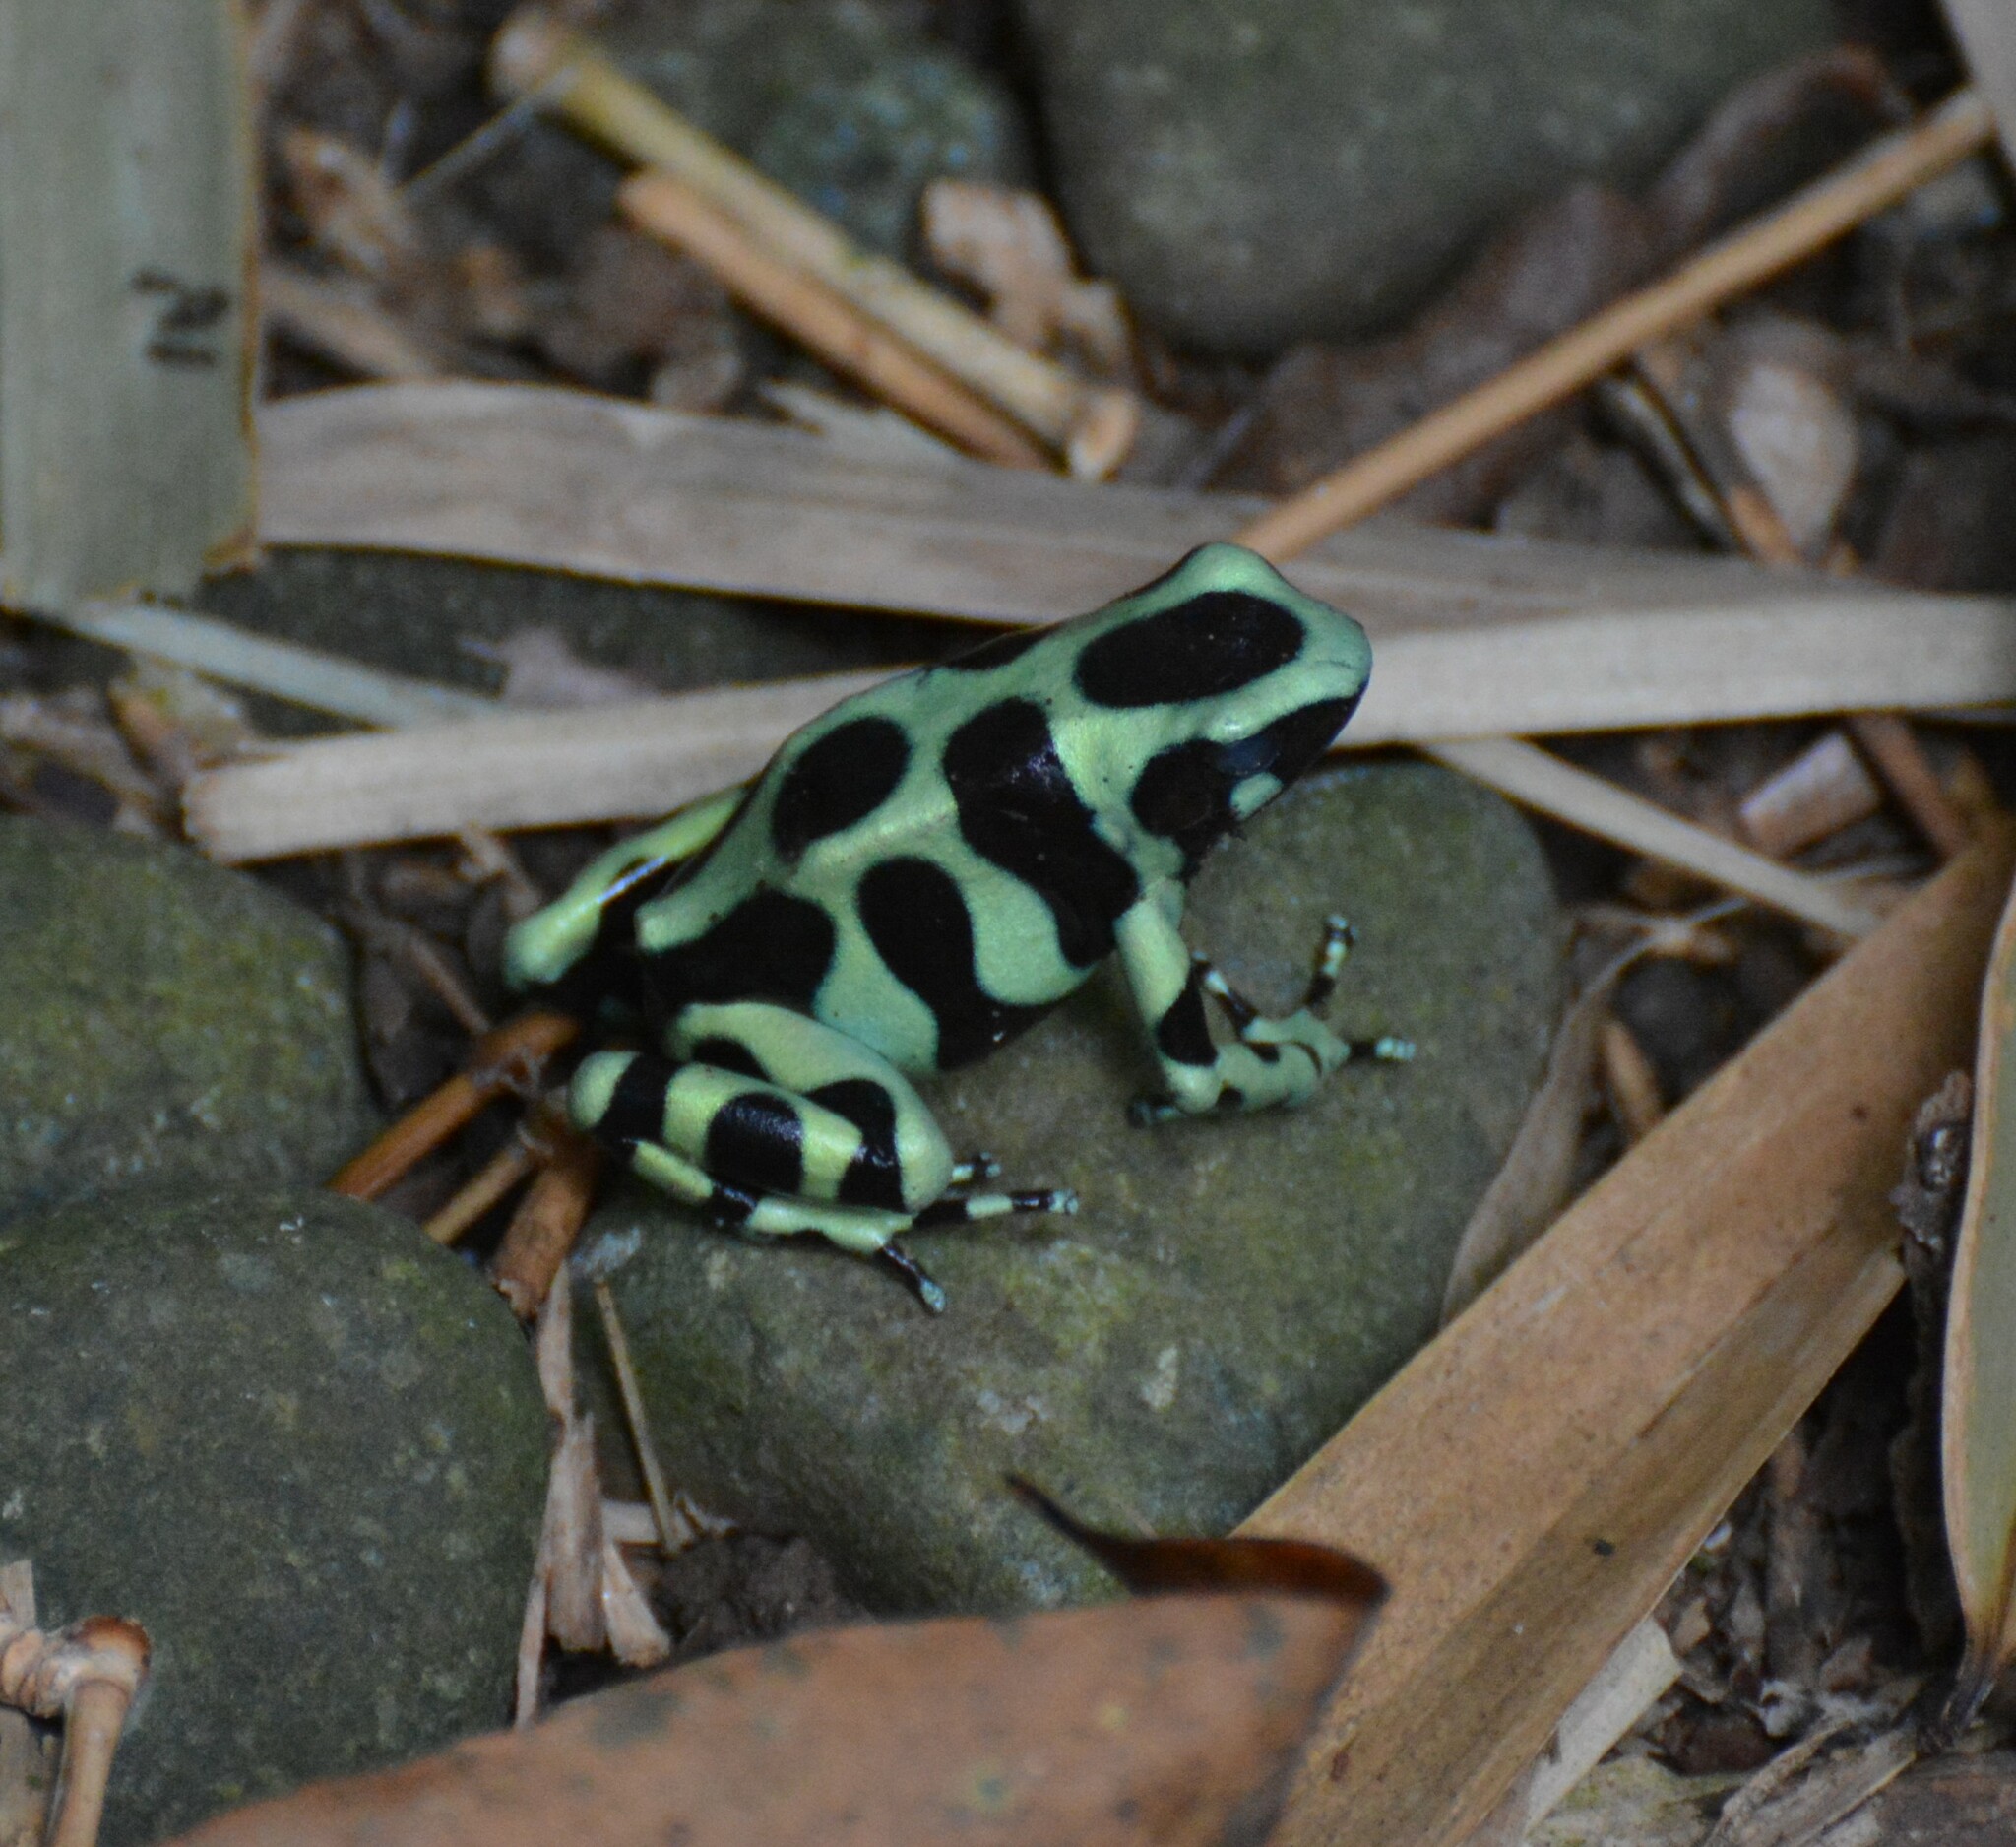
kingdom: Animalia
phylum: Chordata
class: Amphibia
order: Anura
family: Dendrobatidae
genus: Dendrobates
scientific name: Dendrobates auratus
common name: Green and black poison dart frog
